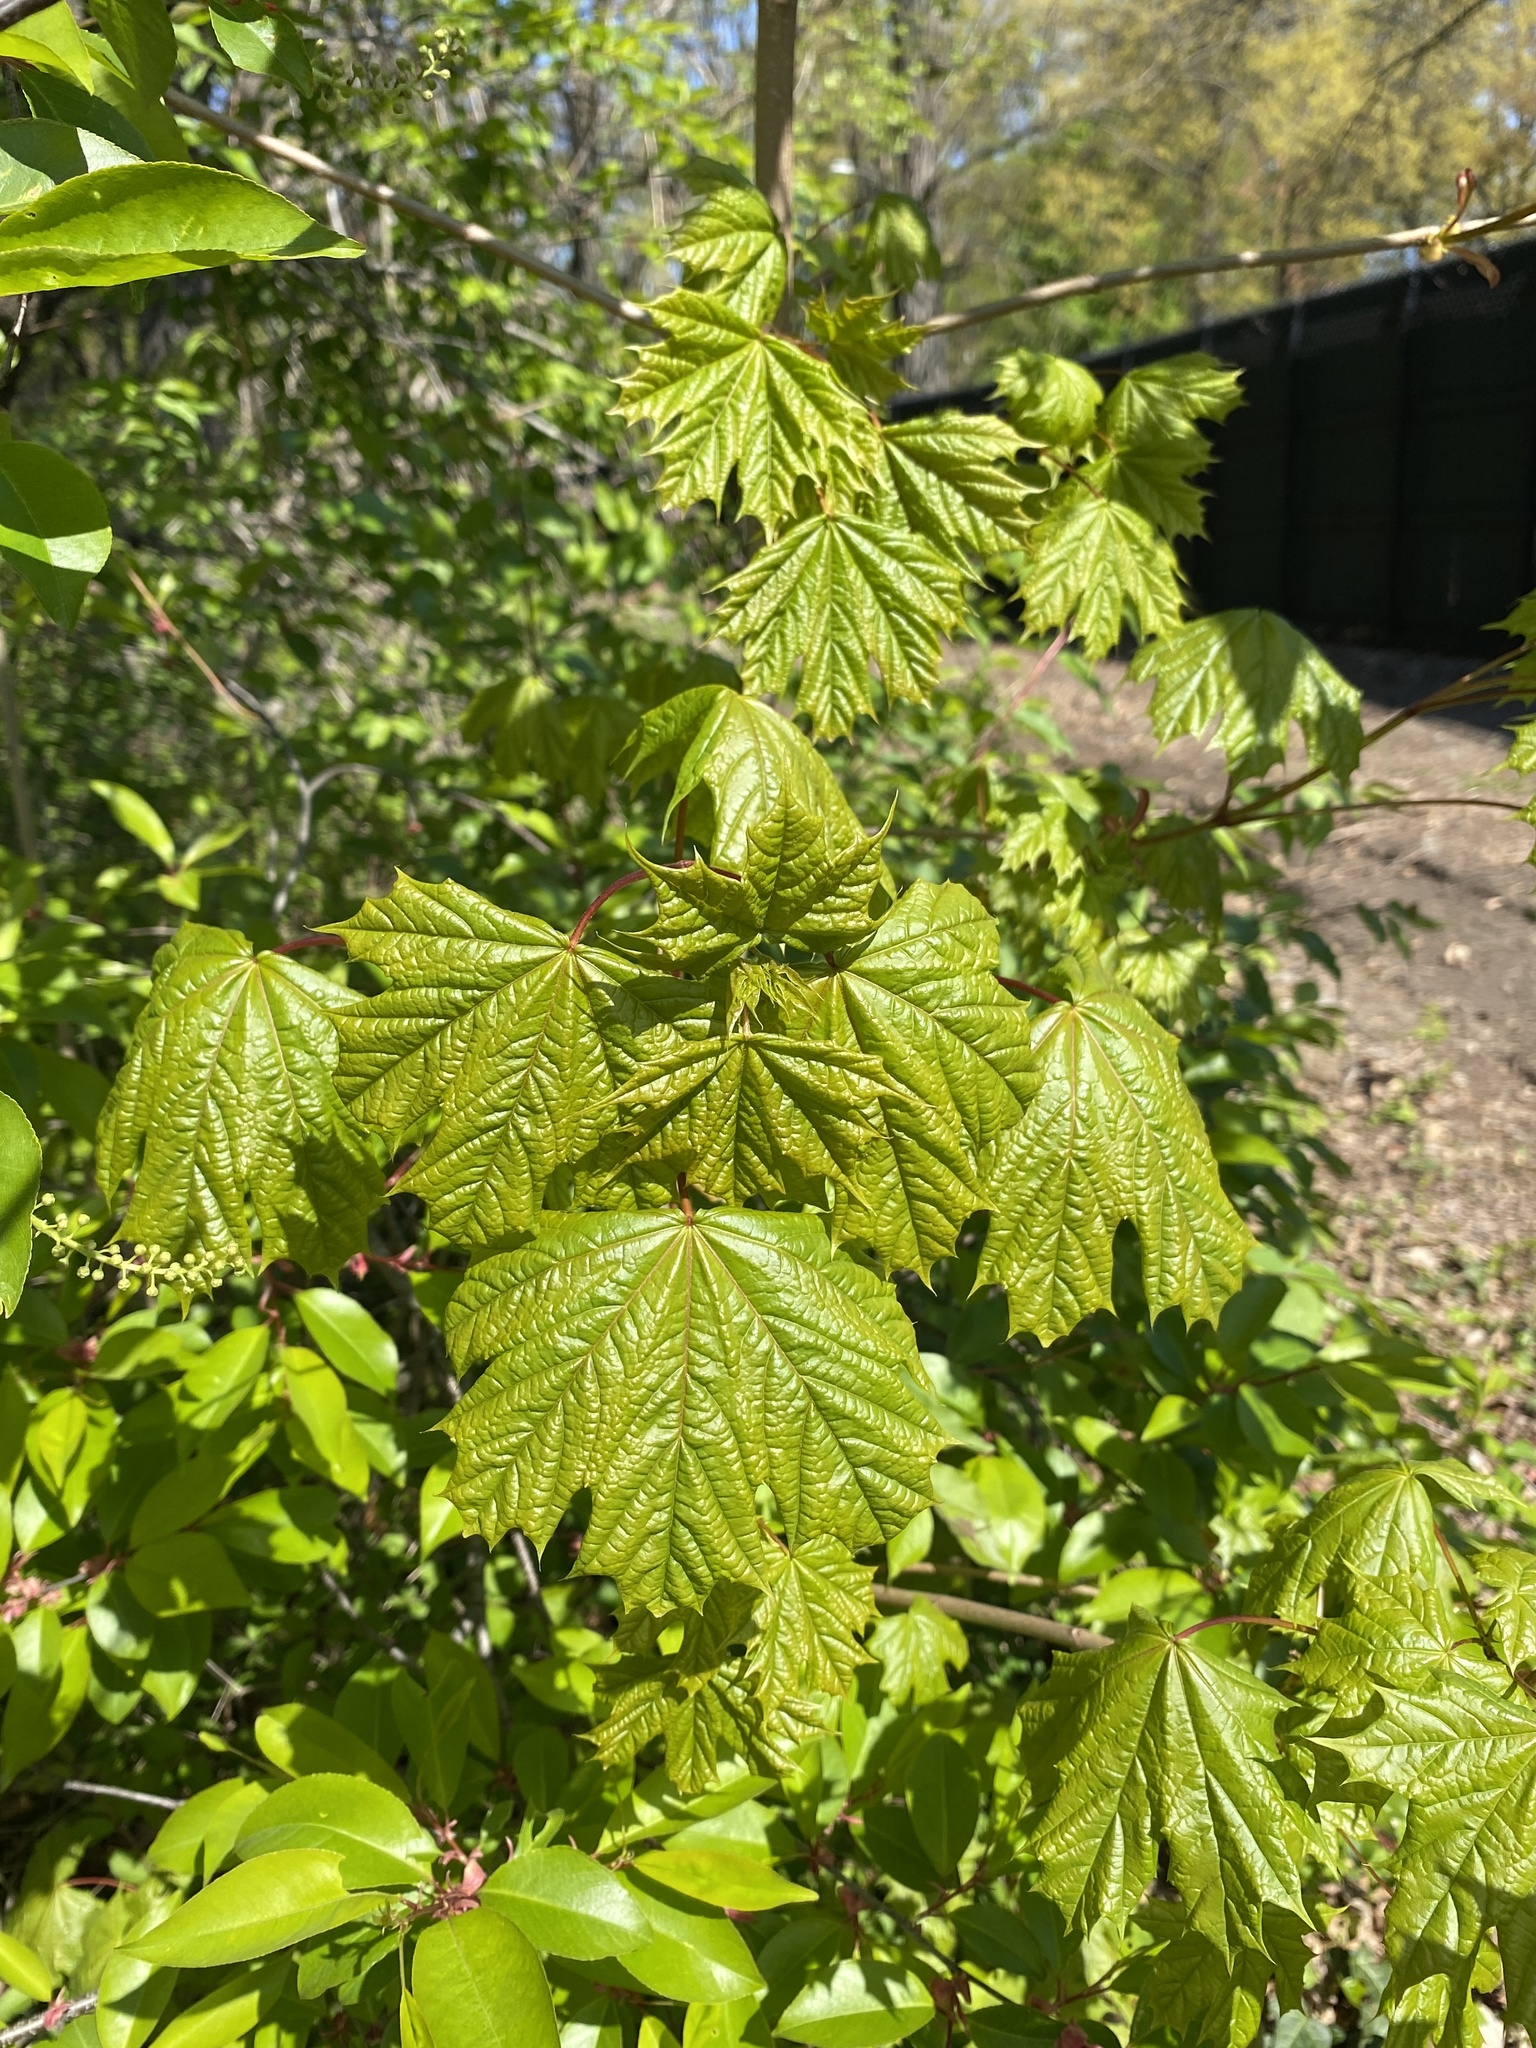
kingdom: Plantae
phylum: Tracheophyta
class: Magnoliopsida
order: Sapindales
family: Sapindaceae
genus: Acer
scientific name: Acer platanoides
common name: Norway maple
